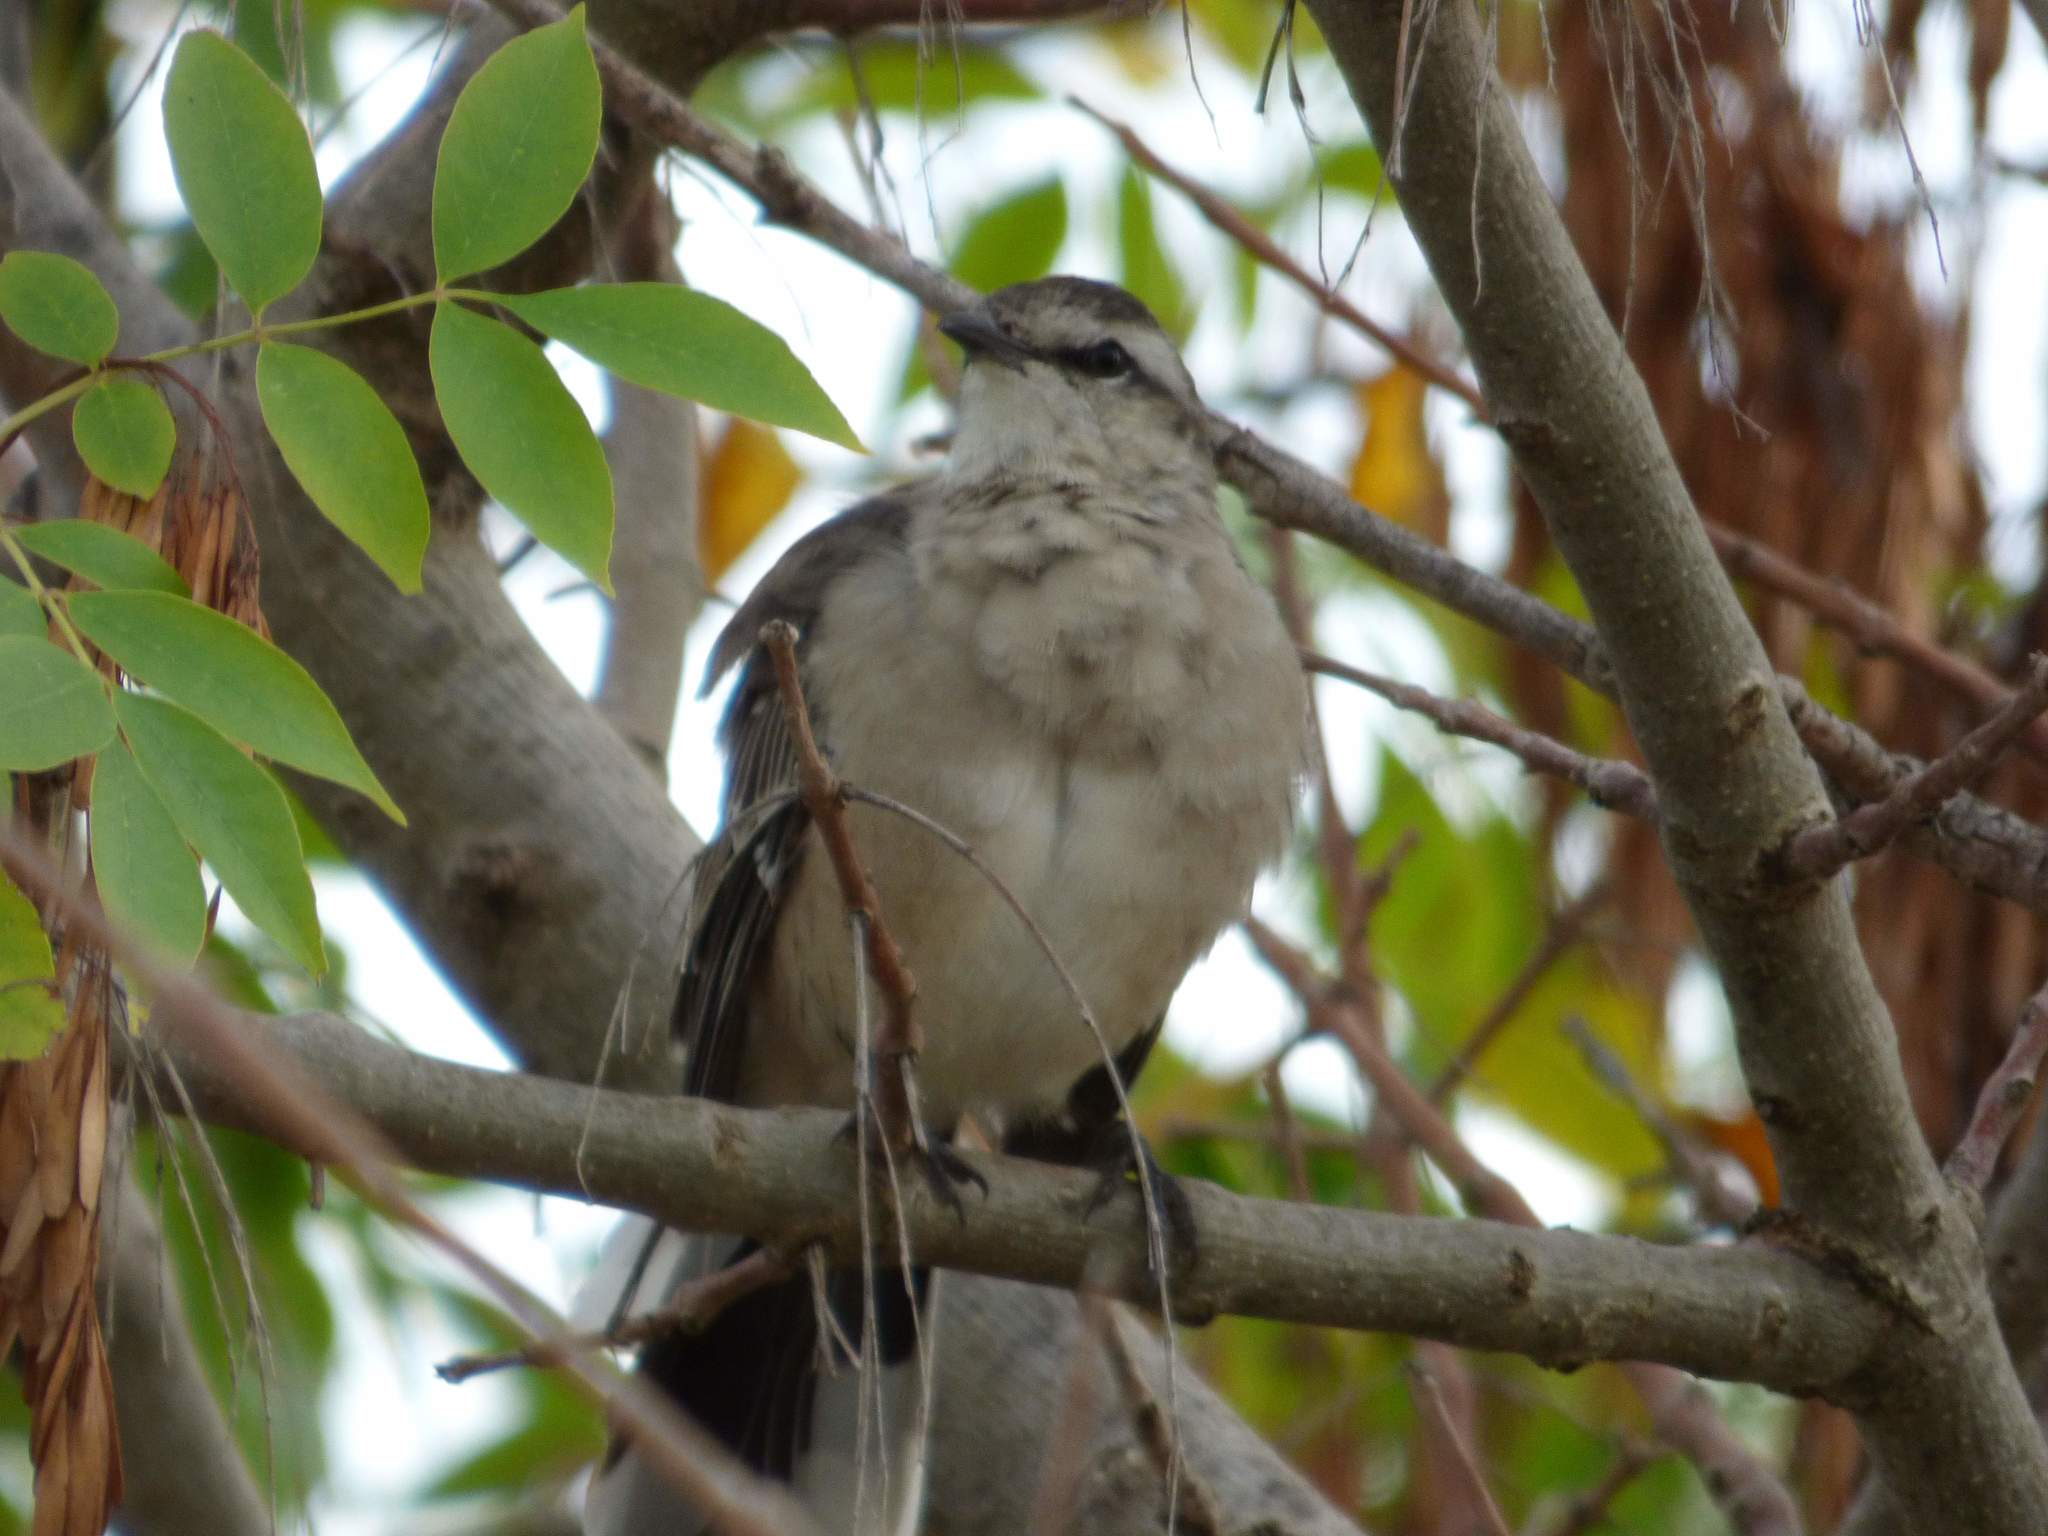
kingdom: Animalia
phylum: Chordata
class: Aves
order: Passeriformes
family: Mimidae
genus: Mimus
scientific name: Mimus saturninus
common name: Chalk-browed mockingbird
